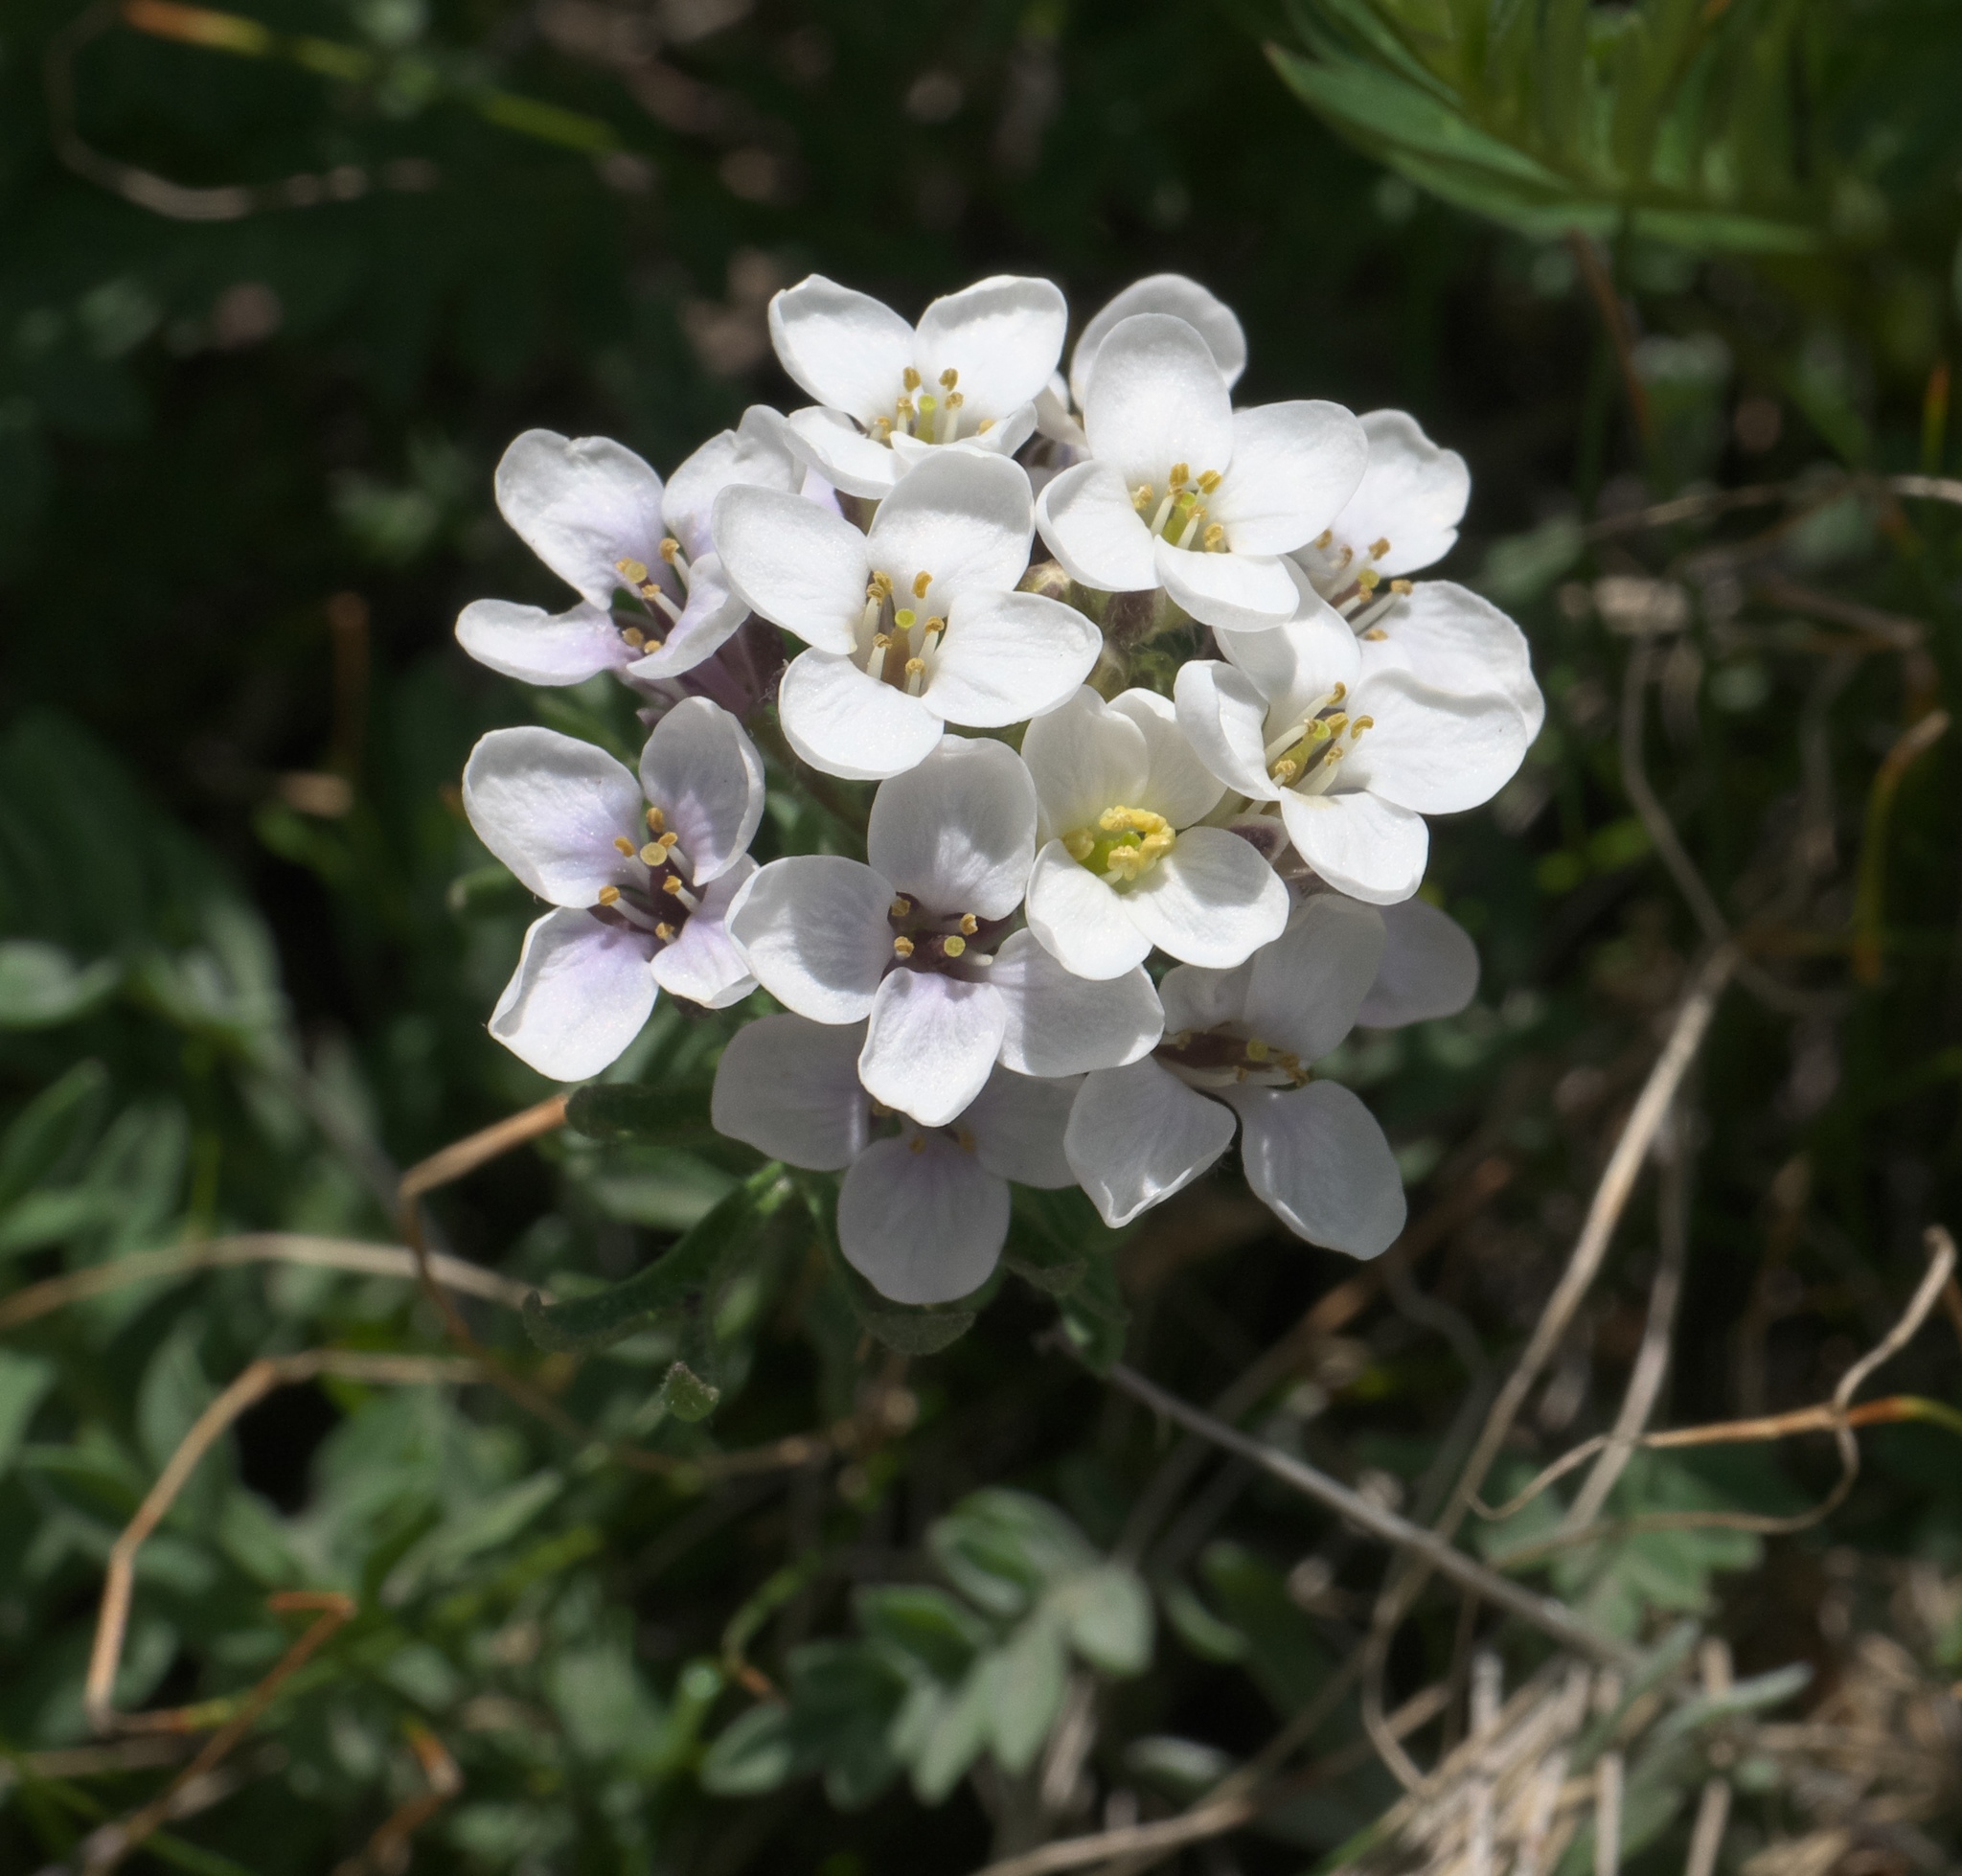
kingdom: Plantae
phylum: Tracheophyta
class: Magnoliopsida
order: Brassicales
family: Brassicaceae
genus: Noccaea
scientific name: Noccaea fendleri
